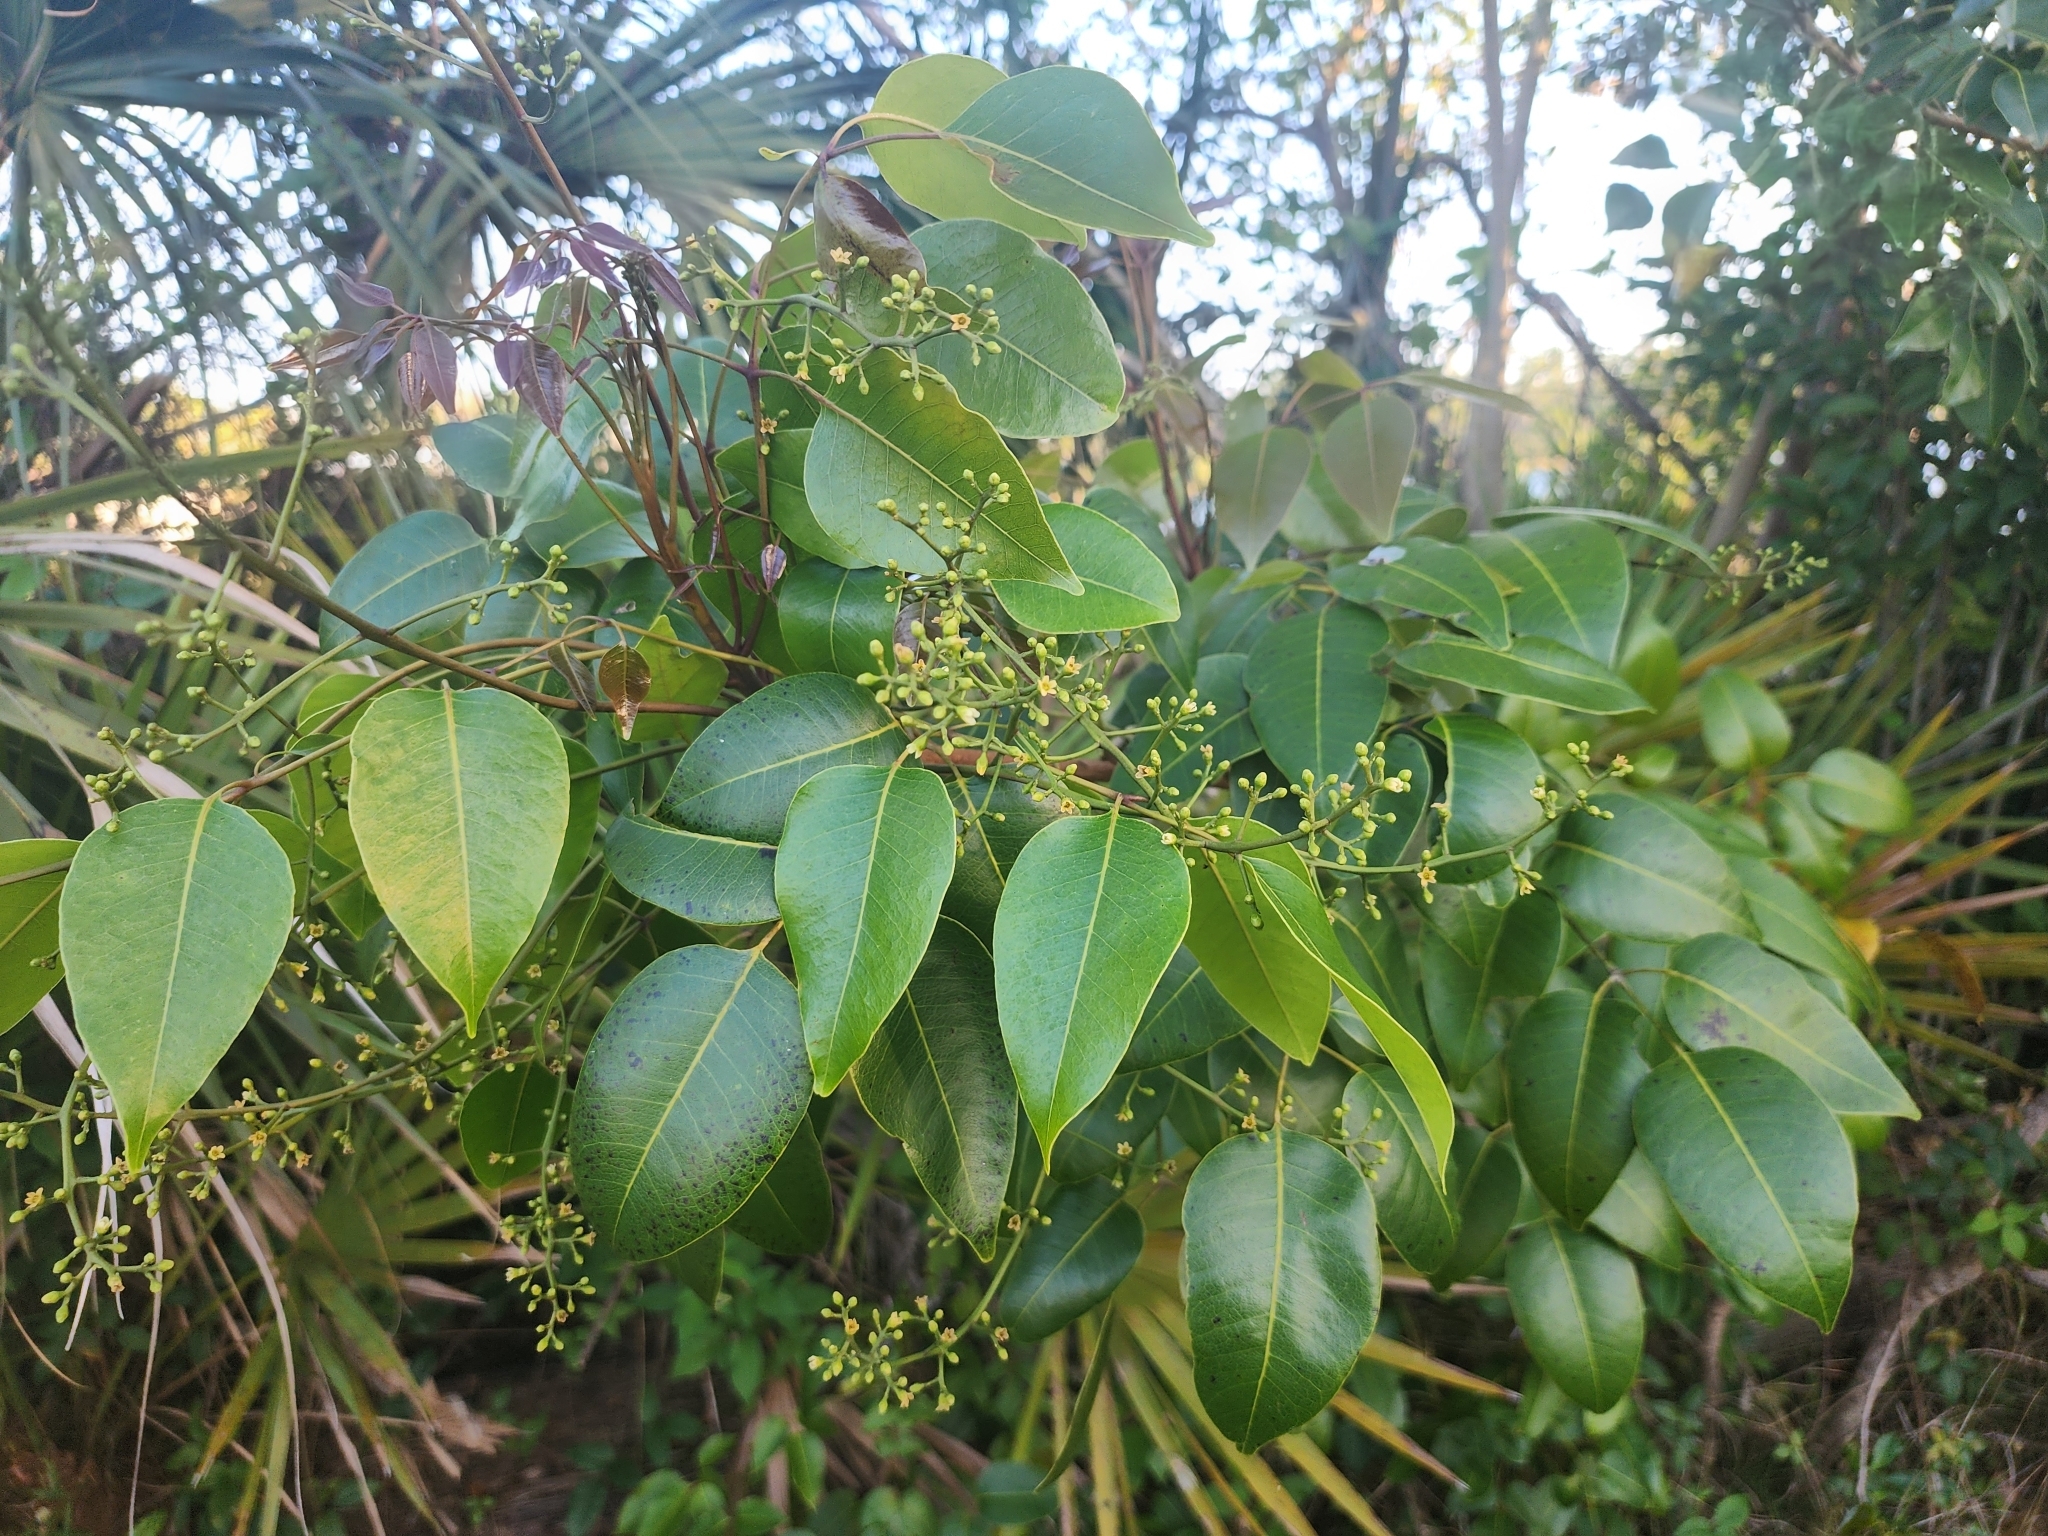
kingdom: Plantae
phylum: Tracheophyta
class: Magnoliopsida
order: Sapindales
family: Anacardiaceae
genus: Metopium
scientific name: Metopium toxiferum
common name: Florida poisontree
